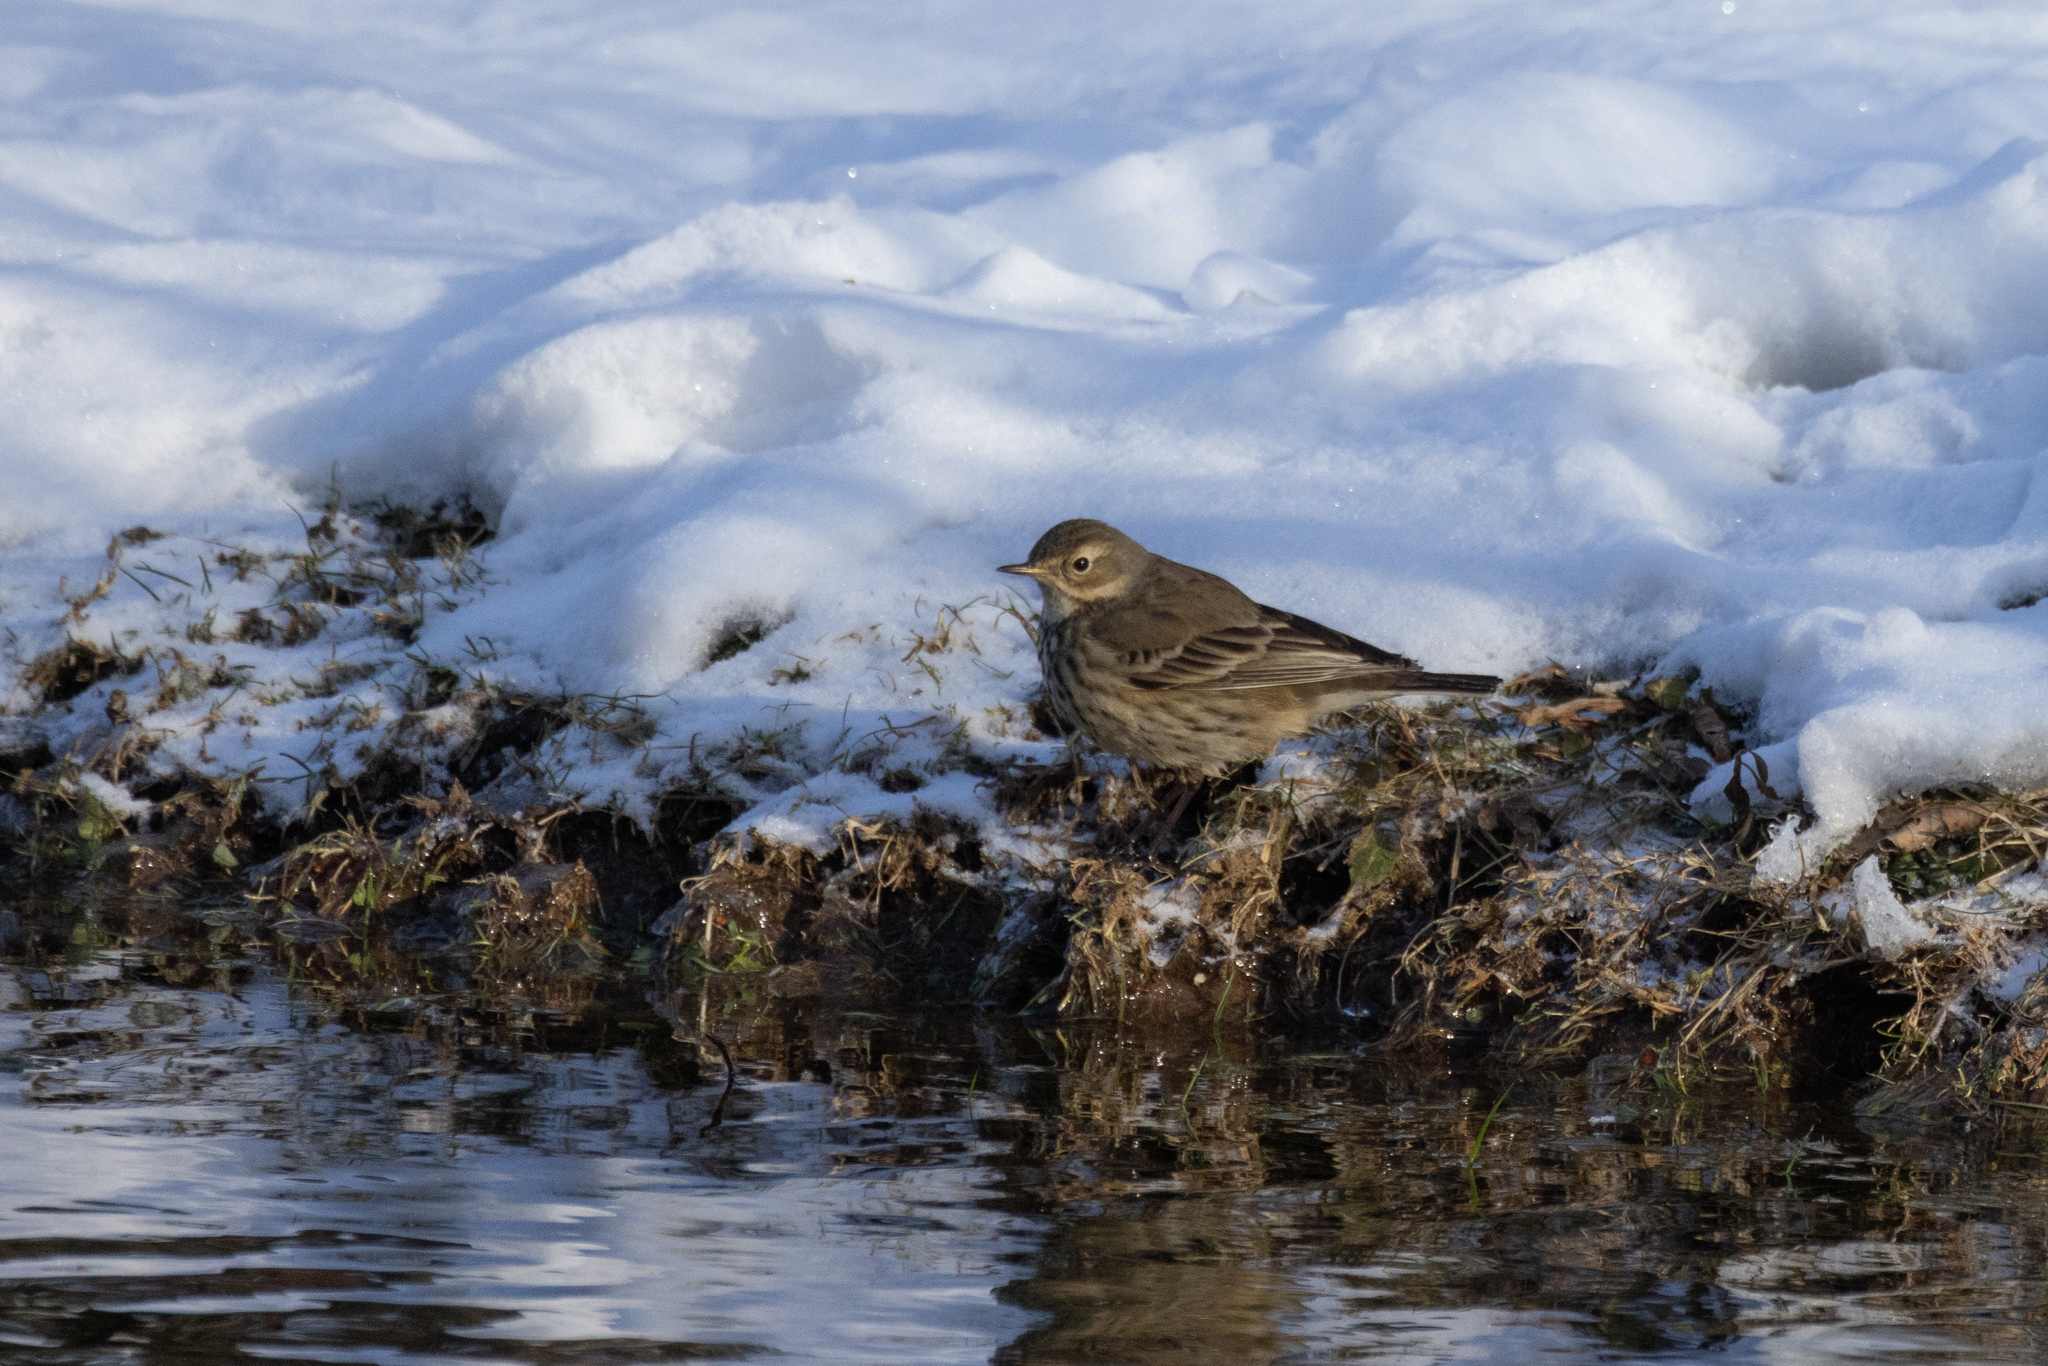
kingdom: Animalia
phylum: Chordata
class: Aves
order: Passeriformes
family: Motacillidae
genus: Anthus
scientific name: Anthus rubescens
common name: Buff-bellied pipit
